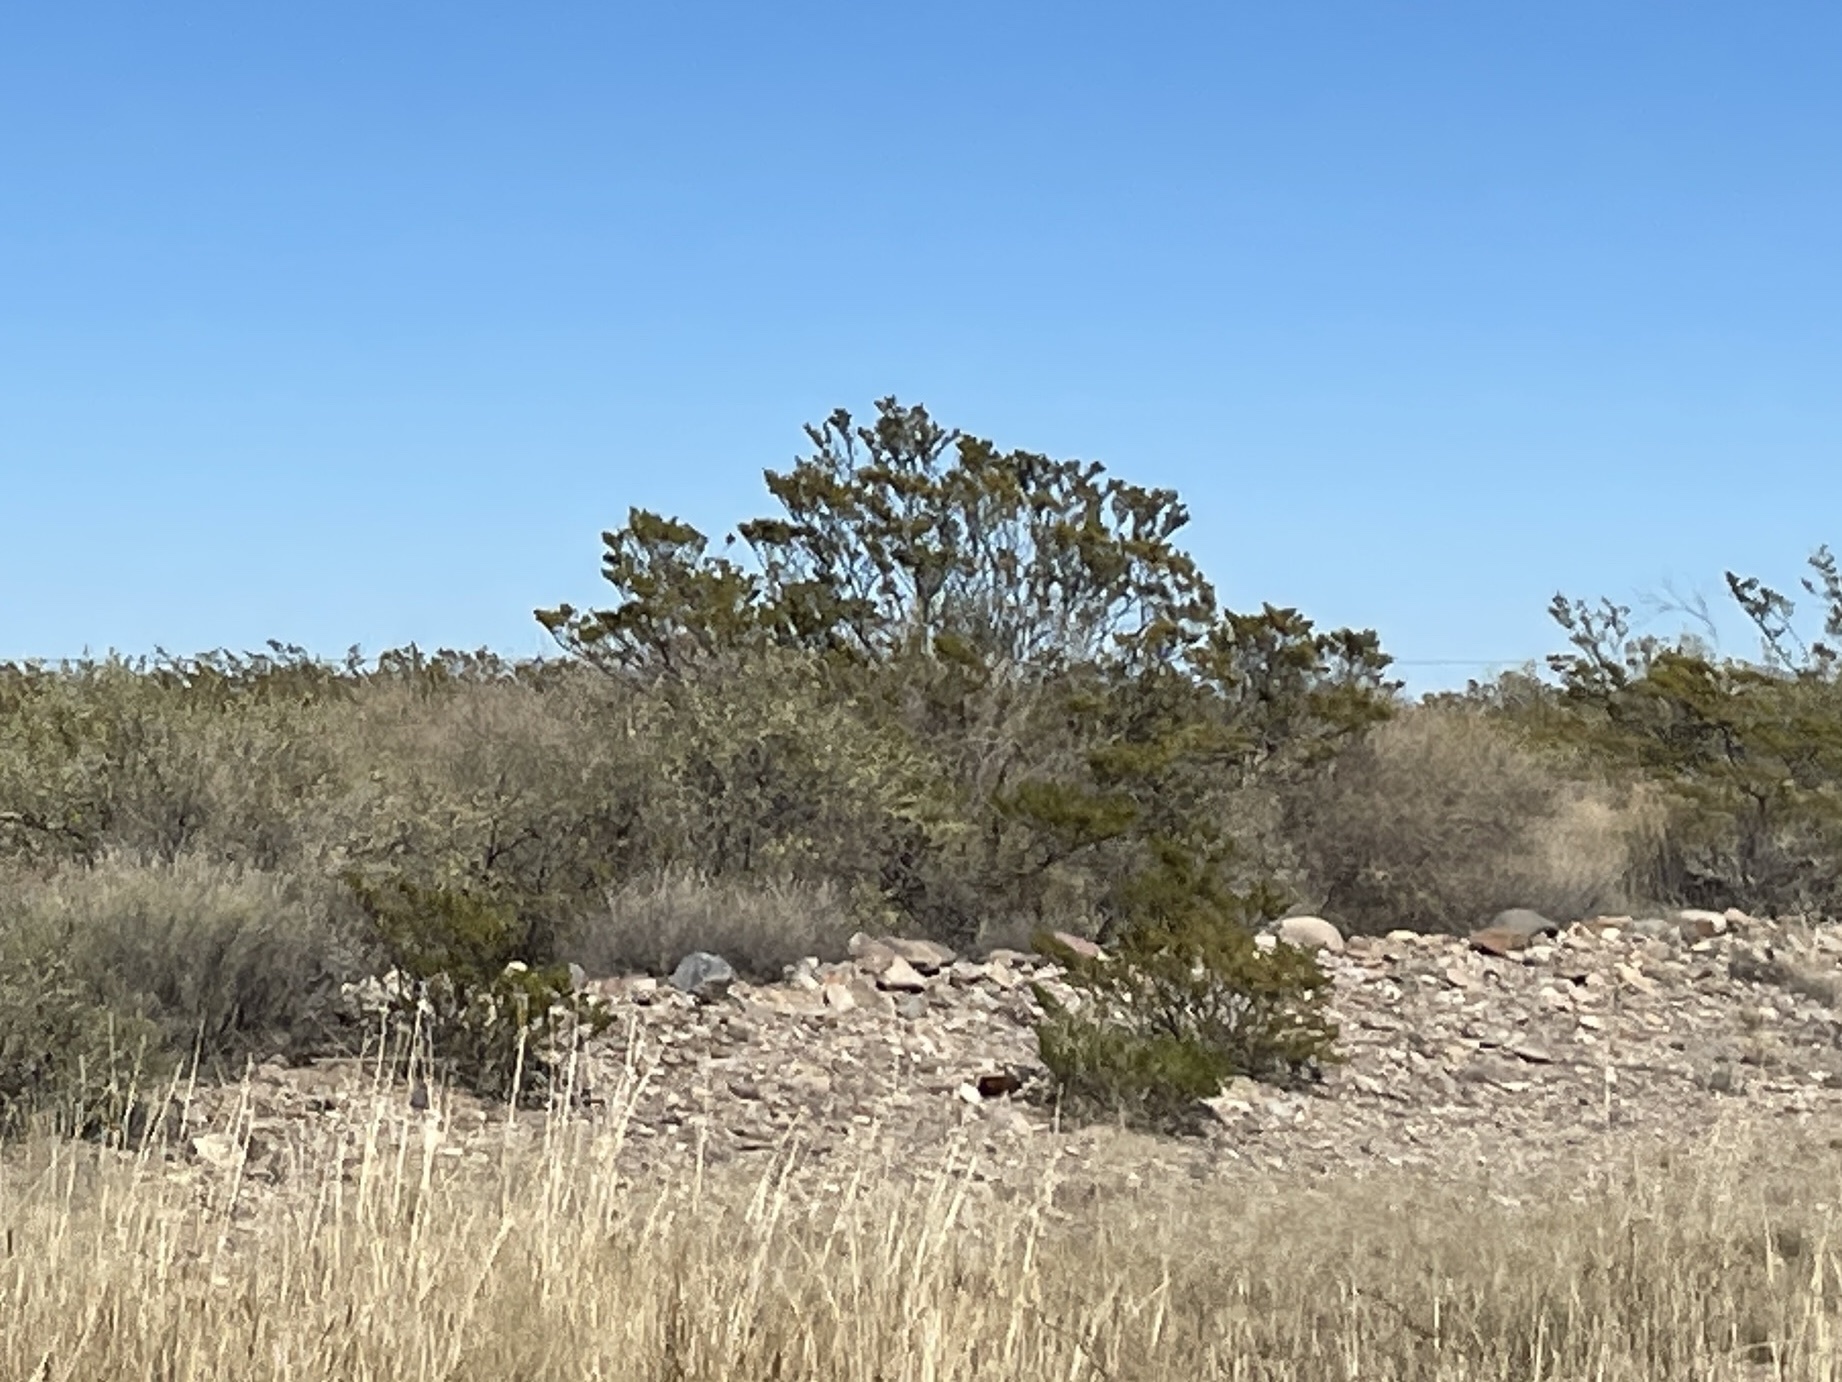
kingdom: Plantae
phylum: Tracheophyta
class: Magnoliopsida
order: Zygophyllales
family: Zygophyllaceae
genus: Larrea
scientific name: Larrea tridentata
